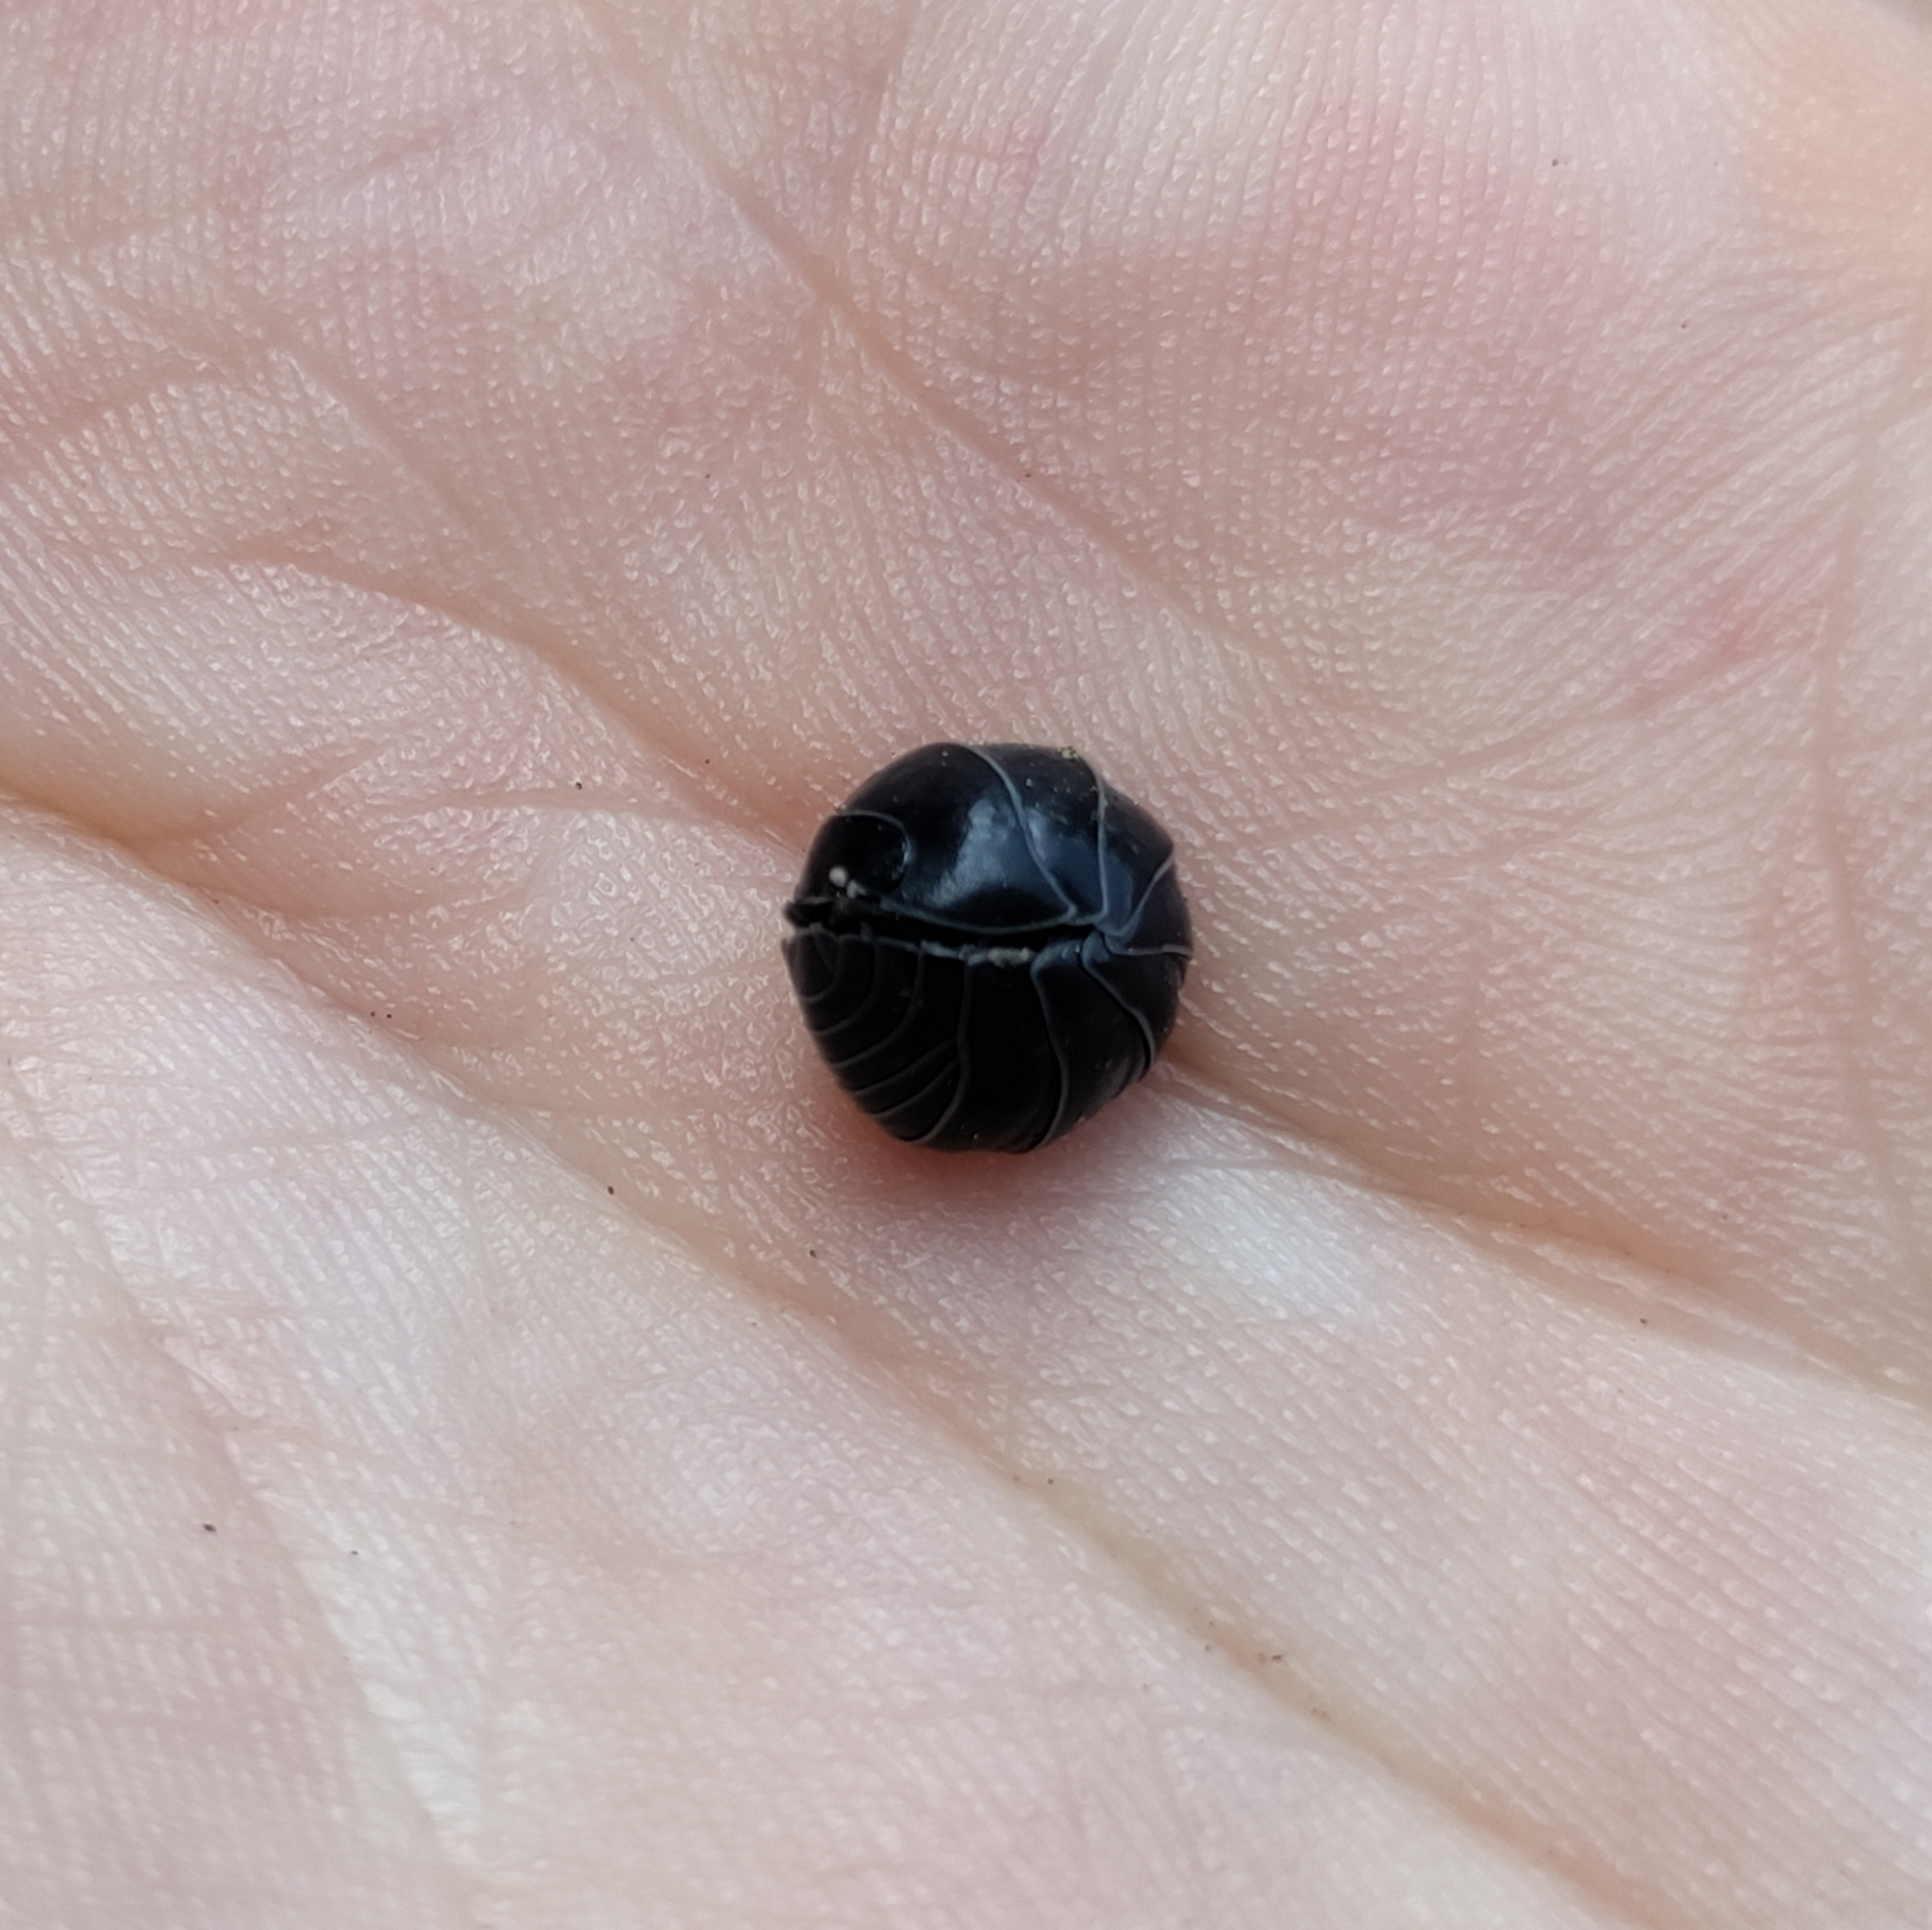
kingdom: Animalia
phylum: Arthropoda
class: Malacostraca
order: Isopoda
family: Armadillidiidae
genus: Armadillidium
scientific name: Armadillidium vulgare
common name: Common pill woodlouse
